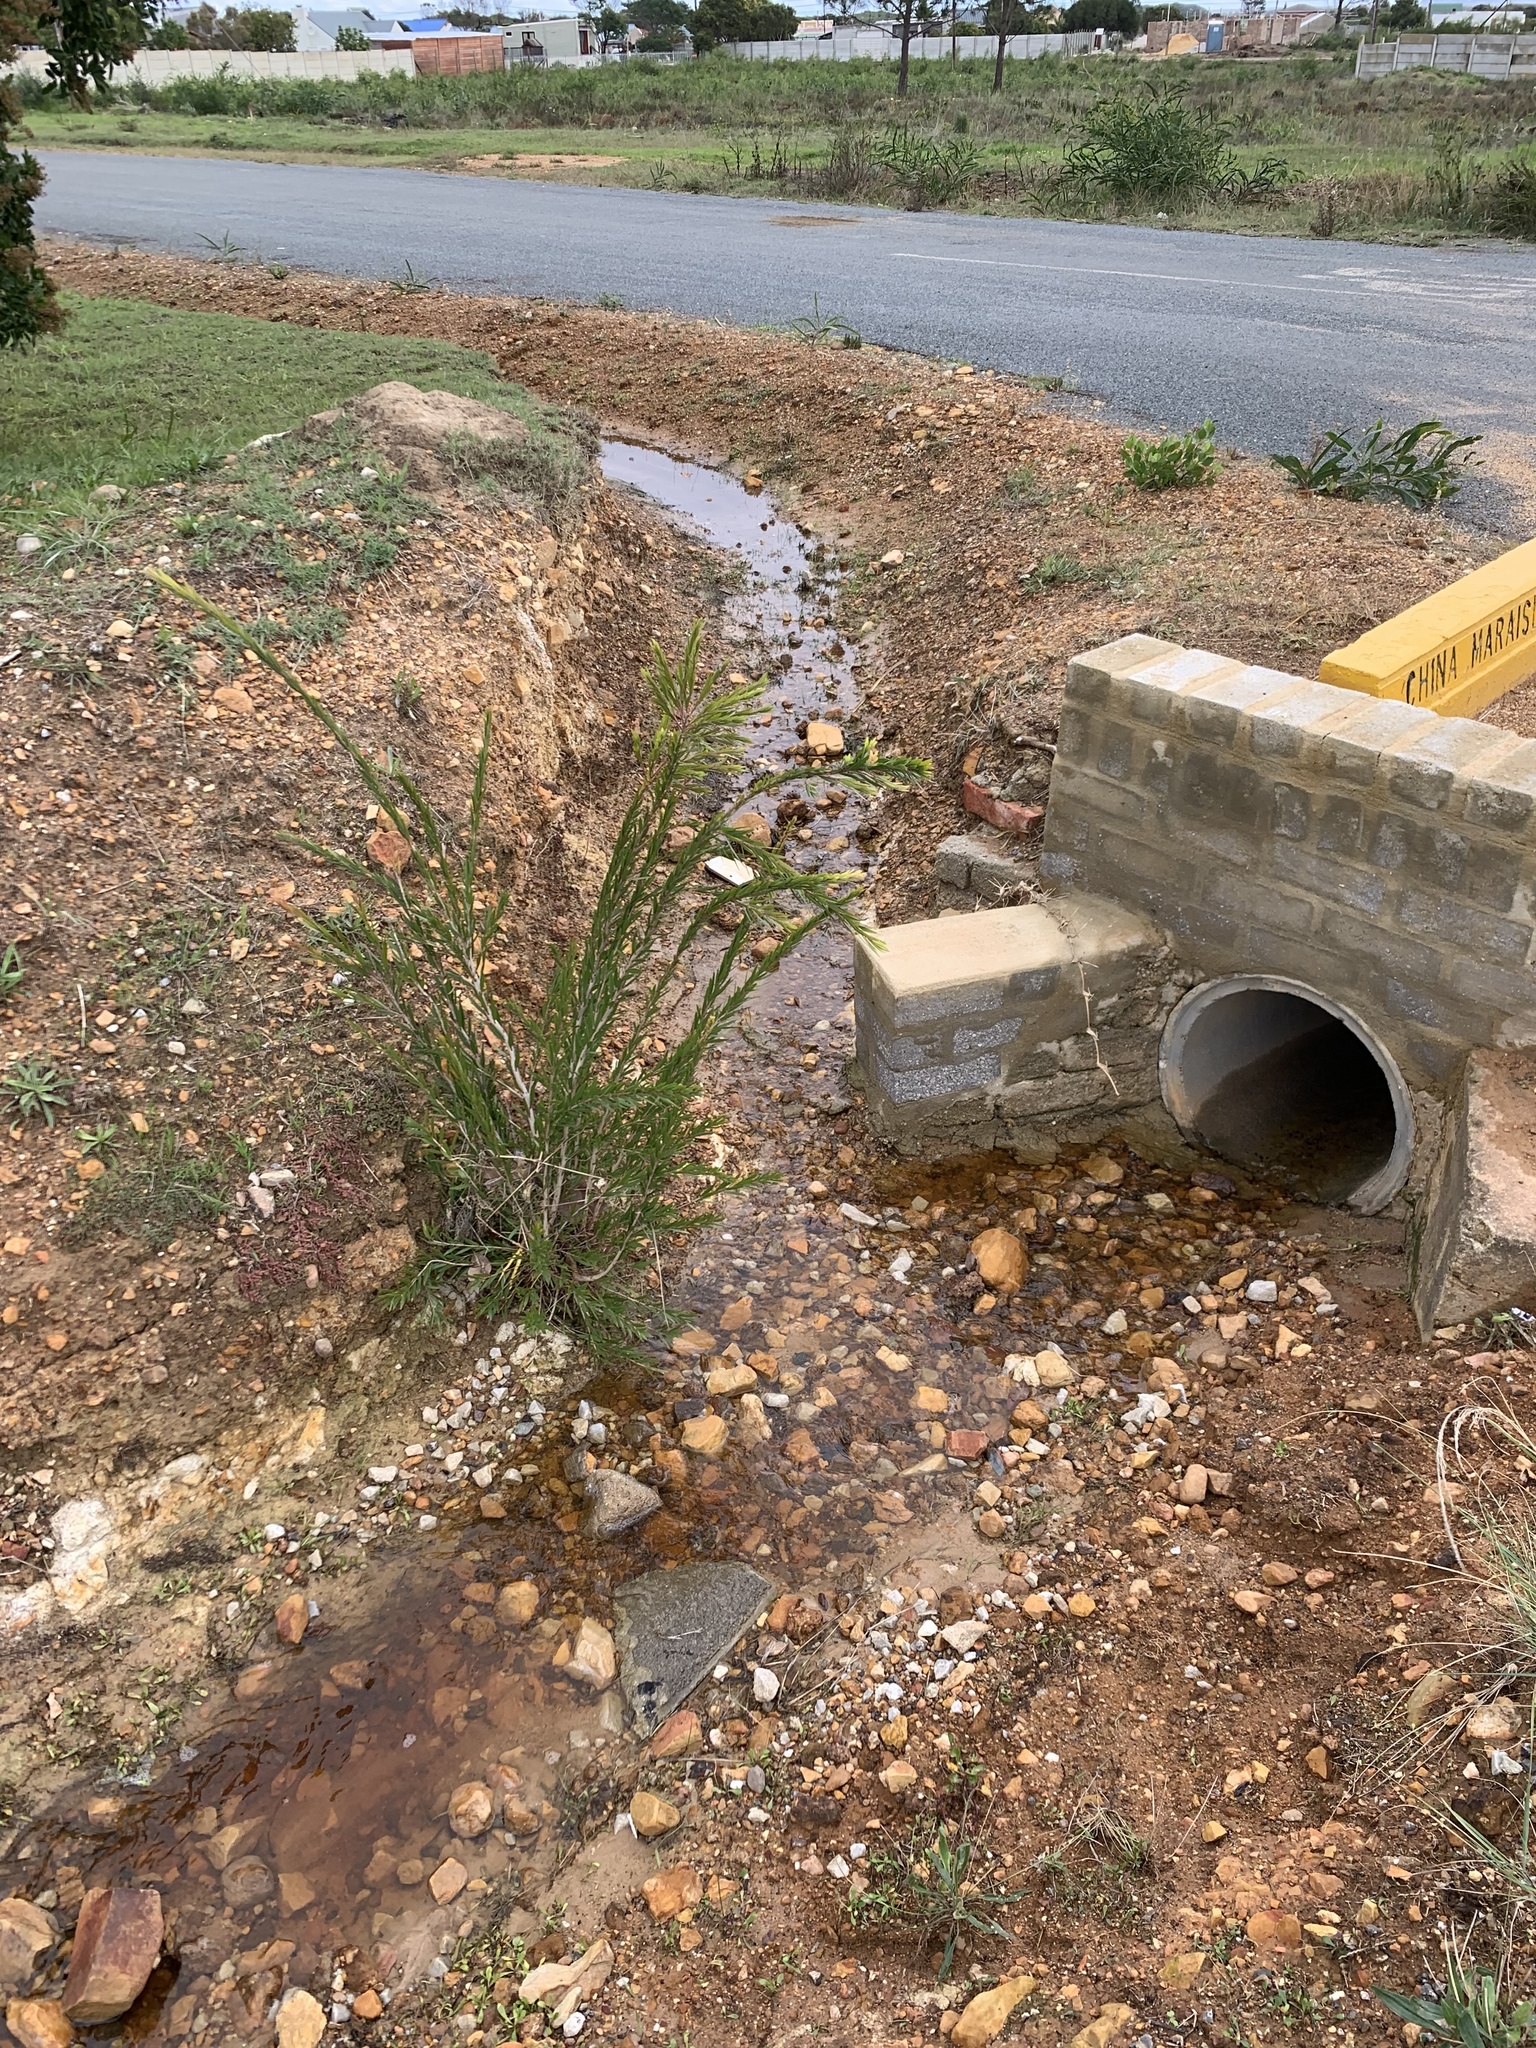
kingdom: Plantae
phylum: Tracheophyta
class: Magnoliopsida
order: Myrtales
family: Myrtaceae
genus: Callistemon
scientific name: Callistemon viminalis
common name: Drooping bottlebrush
